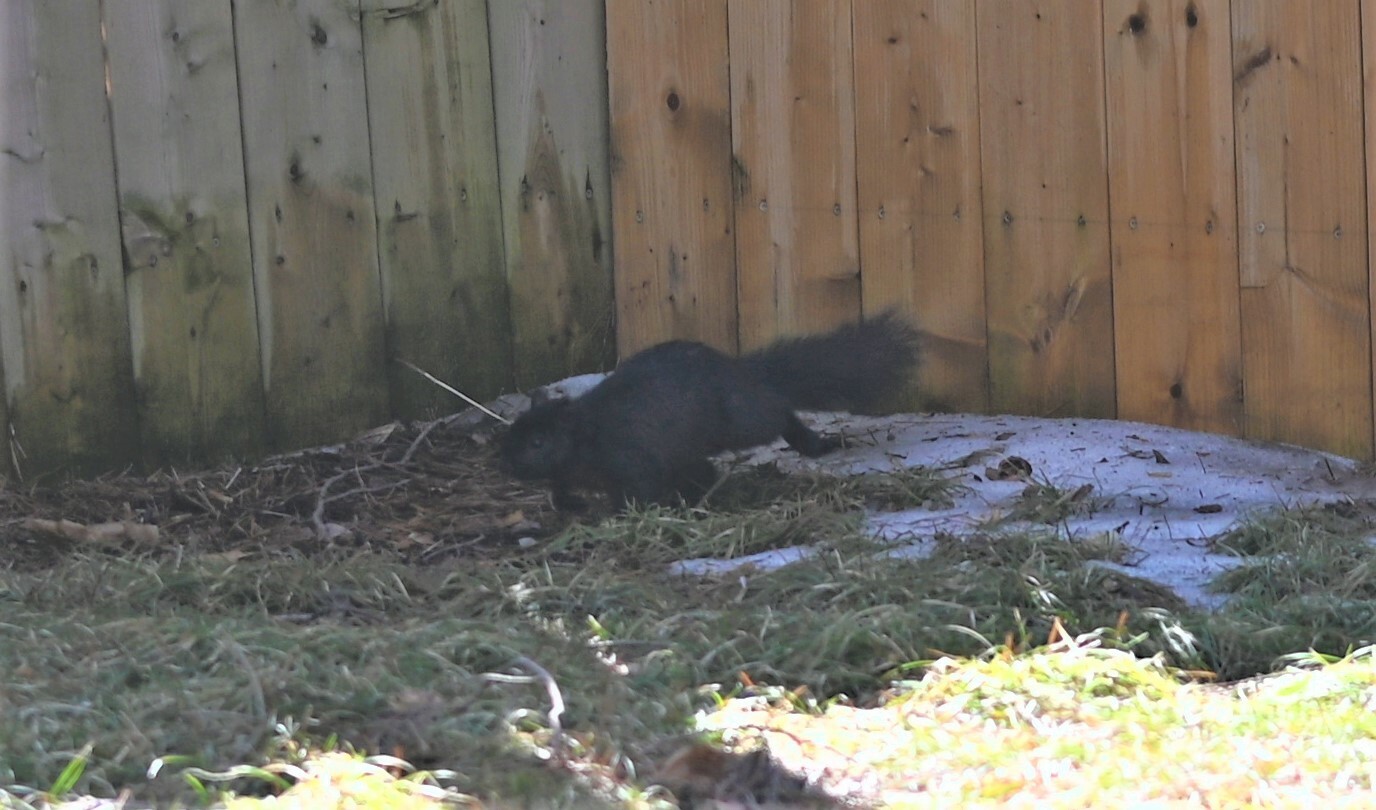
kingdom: Animalia
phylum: Chordata
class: Mammalia
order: Rodentia
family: Sciuridae
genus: Sciurus
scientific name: Sciurus carolinensis
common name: Eastern gray squirrel
